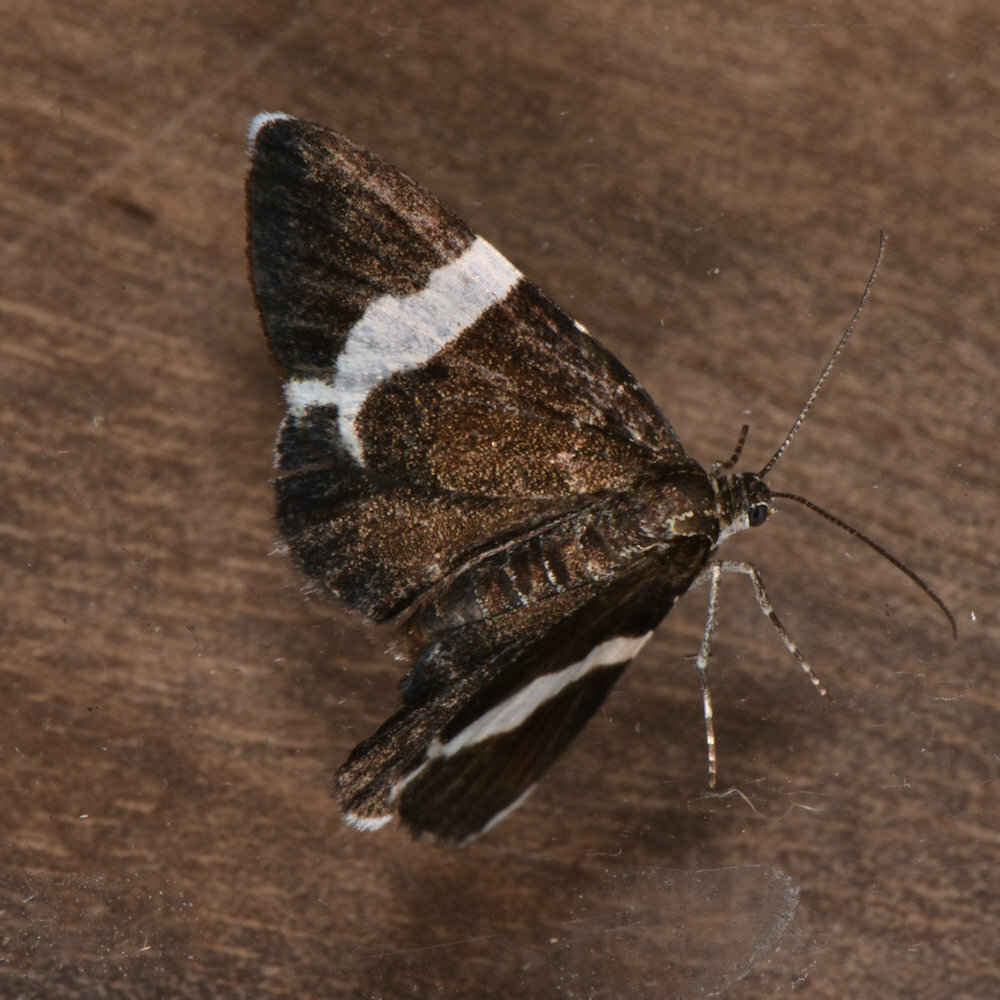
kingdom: Animalia
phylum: Arthropoda
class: Insecta
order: Lepidoptera
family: Geometridae
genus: Trichodezia
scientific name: Trichodezia albovittata
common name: White striped black
